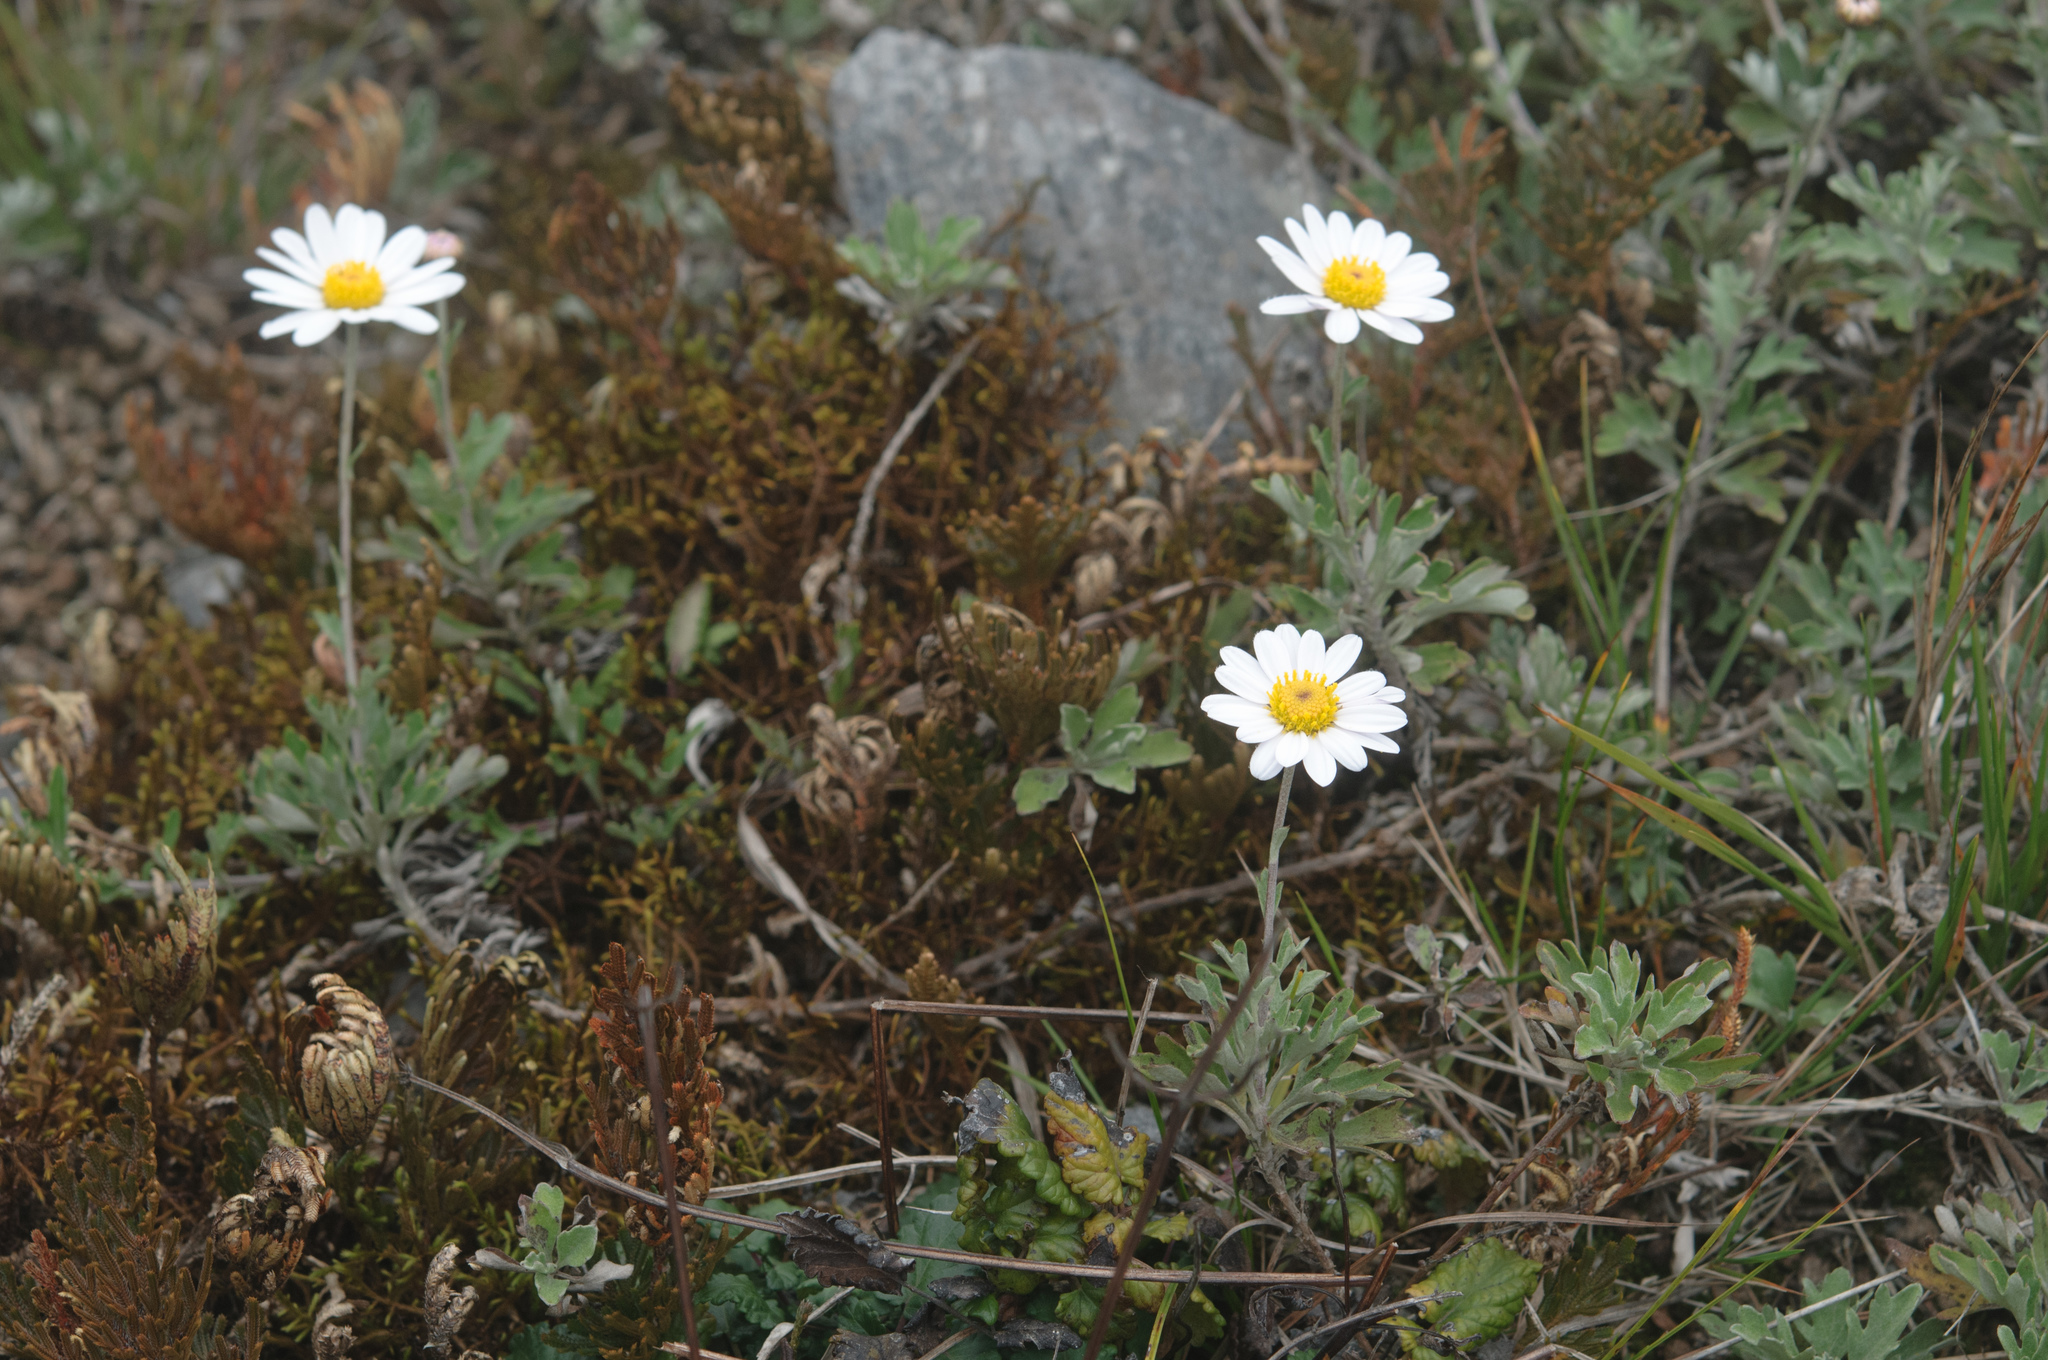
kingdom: Plantae
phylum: Tracheophyta
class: Magnoliopsida
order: Asterales
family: Asteraceae
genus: Chrysanthemum
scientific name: Chrysanthemum morii
